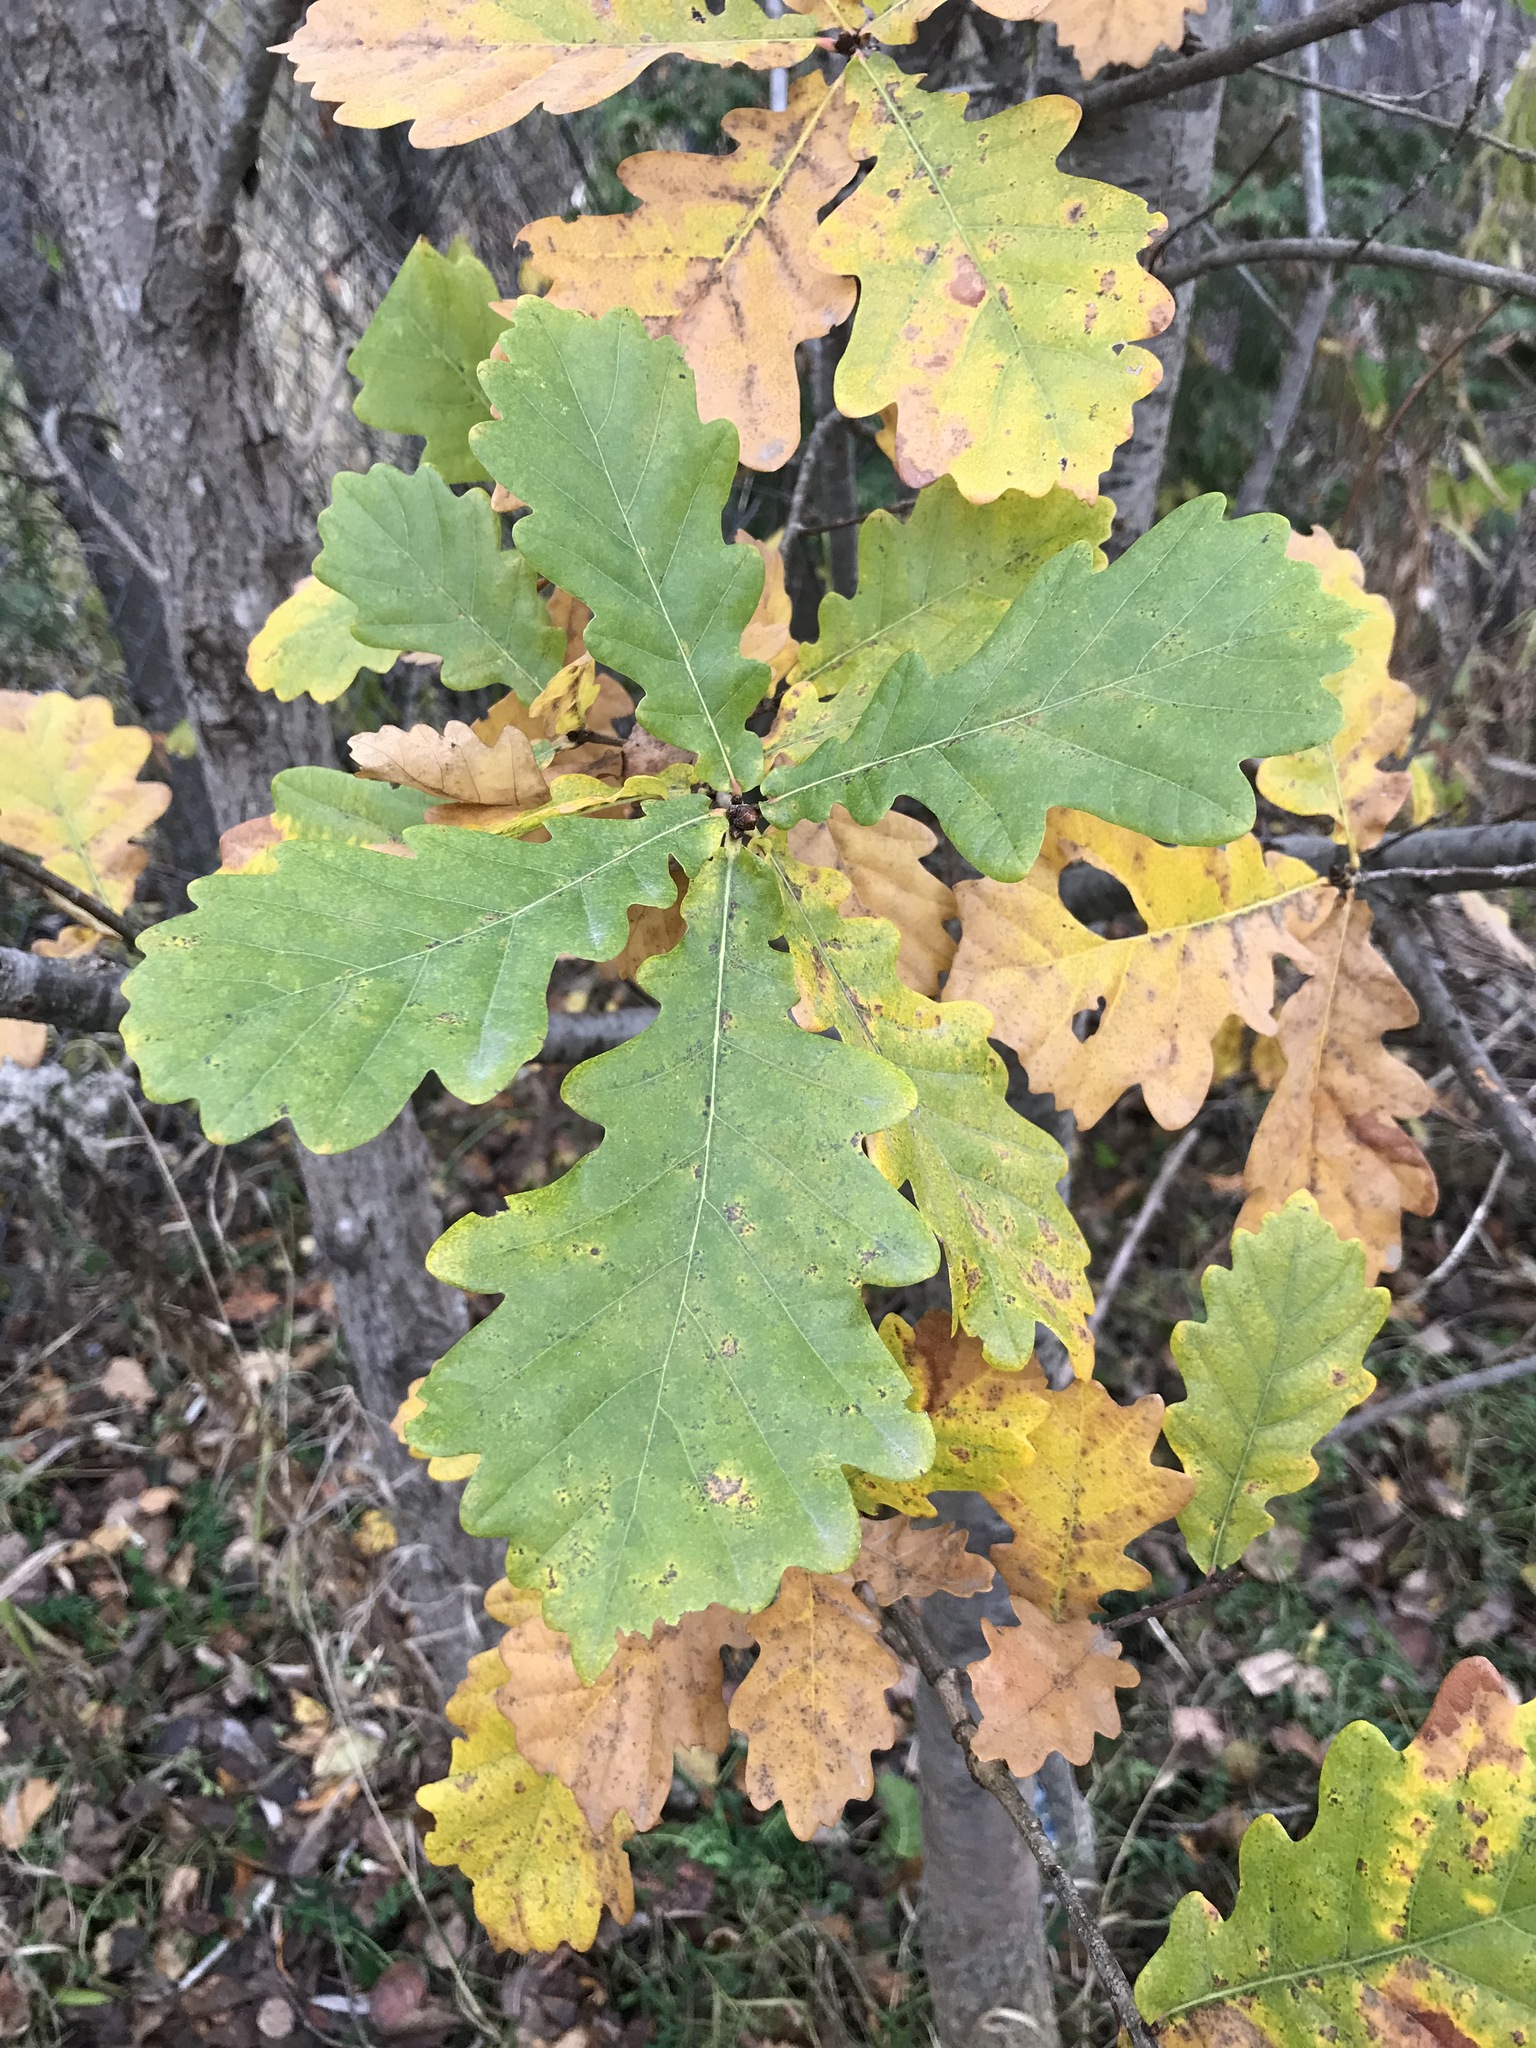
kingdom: Plantae
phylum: Tracheophyta
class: Magnoliopsida
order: Fagales
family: Fagaceae
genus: Quercus
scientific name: Quercus robur
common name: Pedunculate oak
